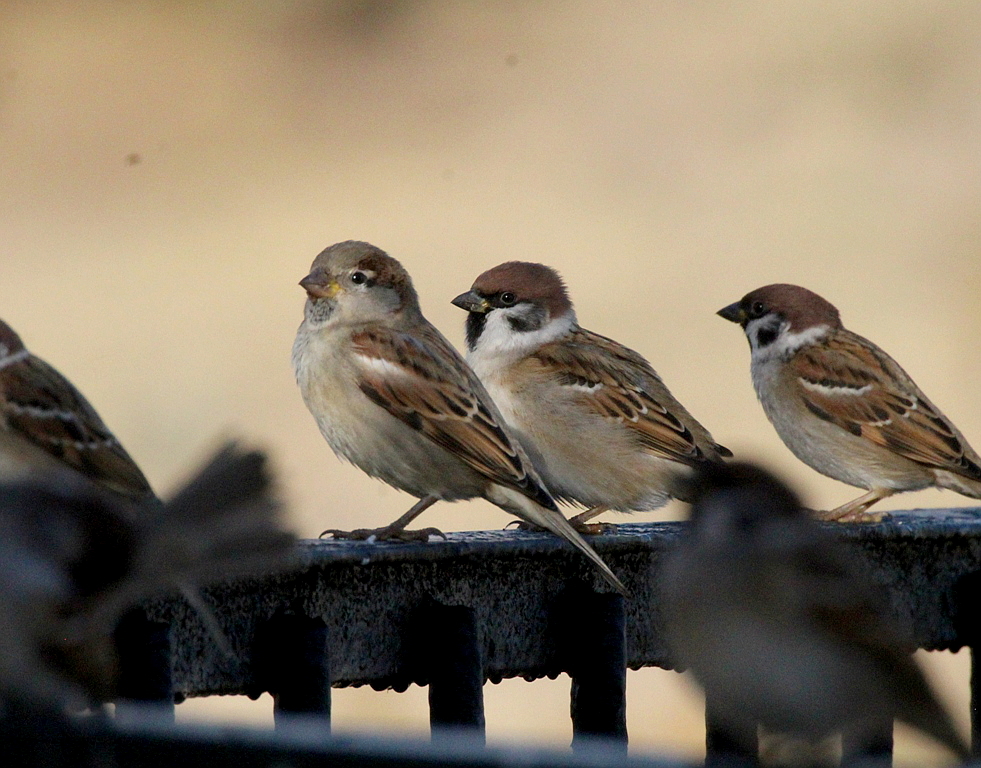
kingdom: Animalia
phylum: Chordata
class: Aves
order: Passeriformes
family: Passeridae
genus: Passer
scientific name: Passer domesticus
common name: House sparrow
